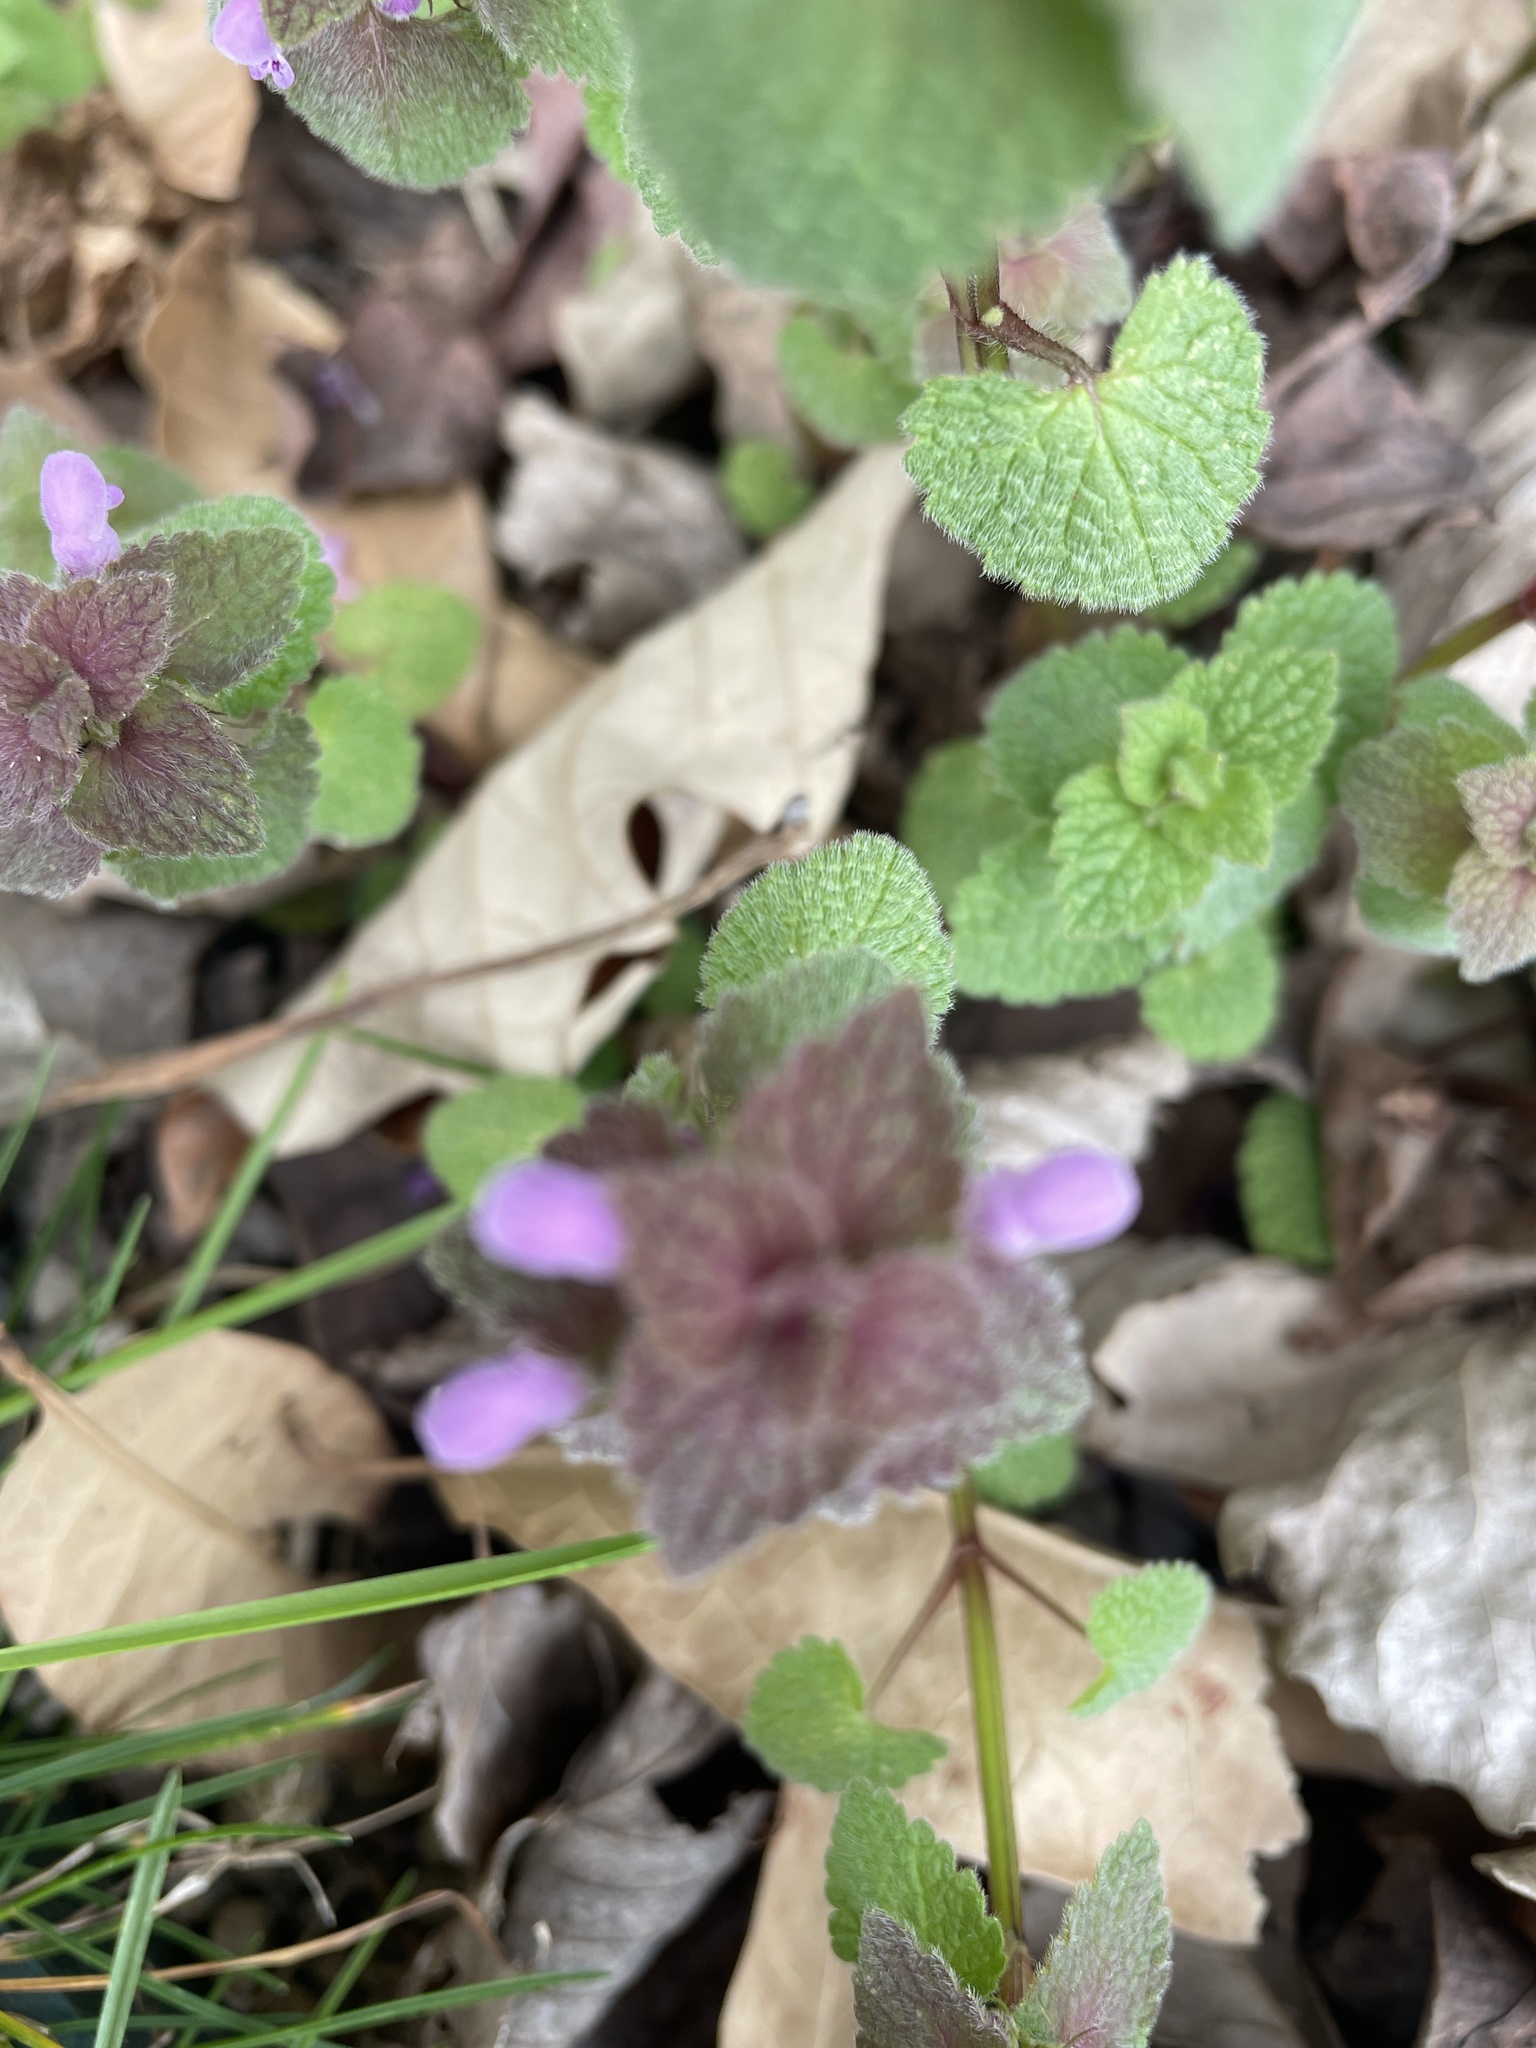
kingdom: Plantae
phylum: Tracheophyta
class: Magnoliopsida
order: Lamiales
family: Lamiaceae
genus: Lamium
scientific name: Lamium purpureum
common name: Red dead-nettle
